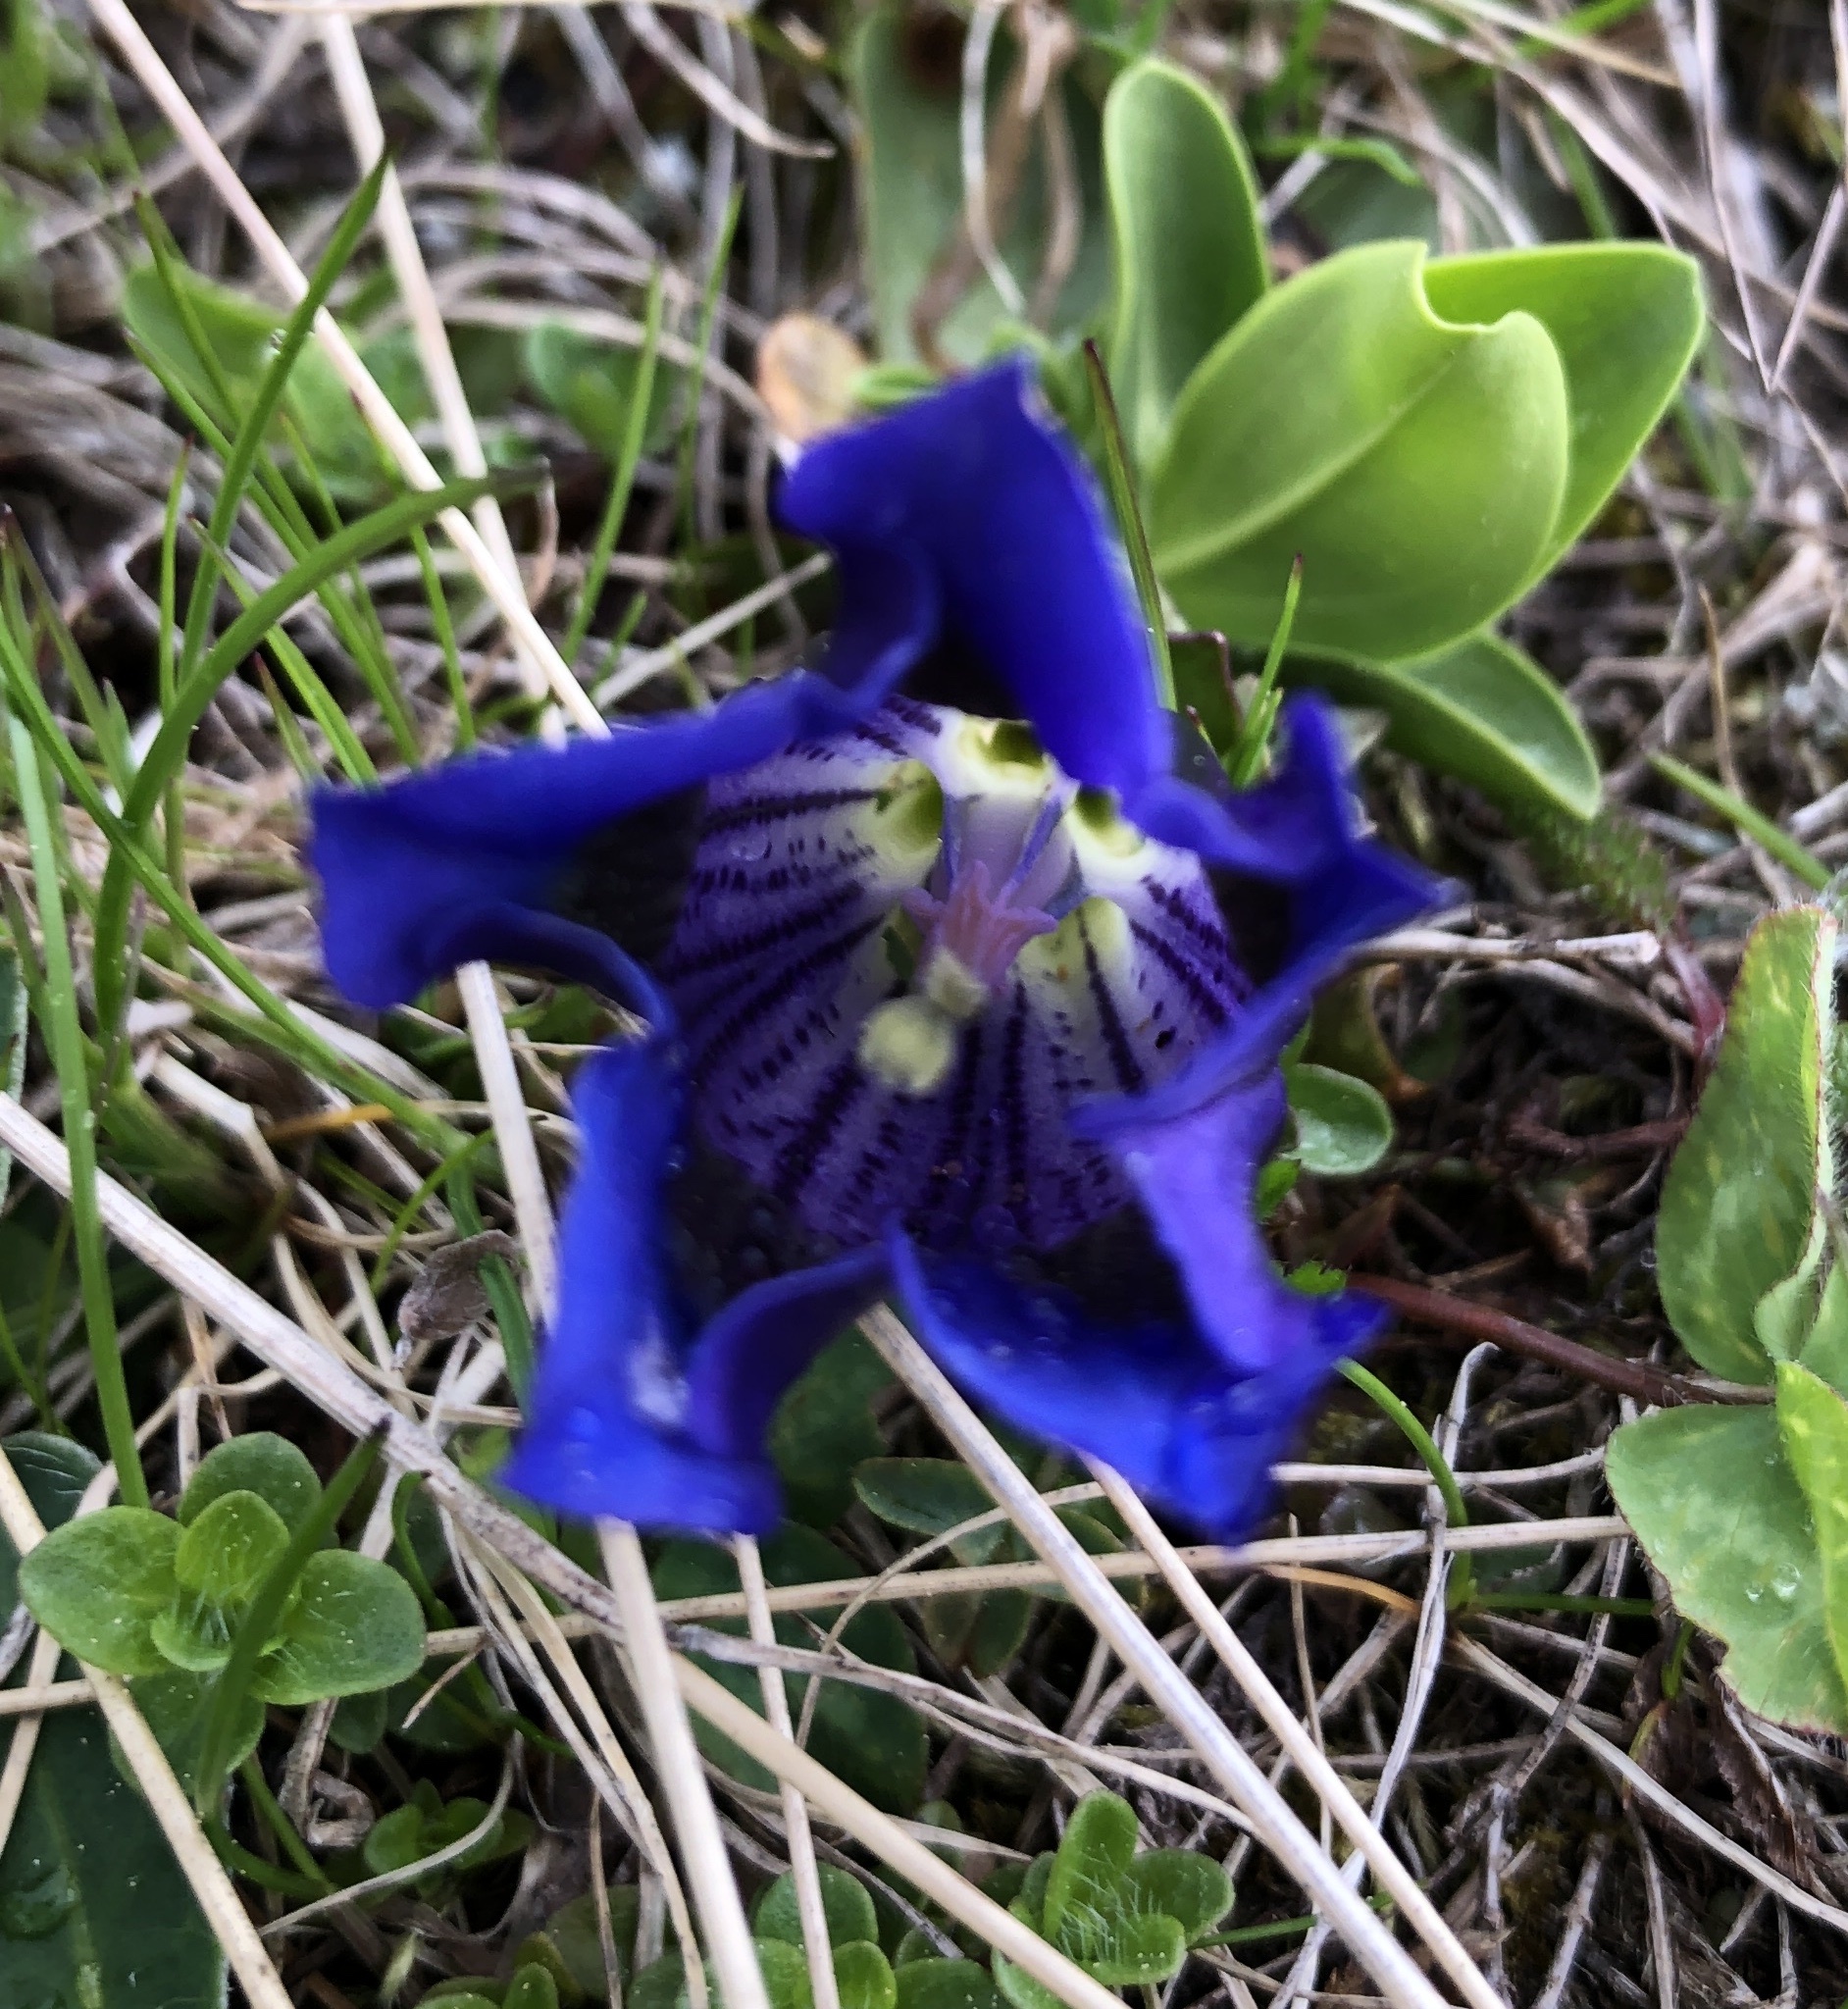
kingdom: Plantae
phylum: Tracheophyta
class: Magnoliopsida
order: Gentianales
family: Gentianaceae
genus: Gentiana
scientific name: Gentiana acaulis
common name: Trumpet gentian
